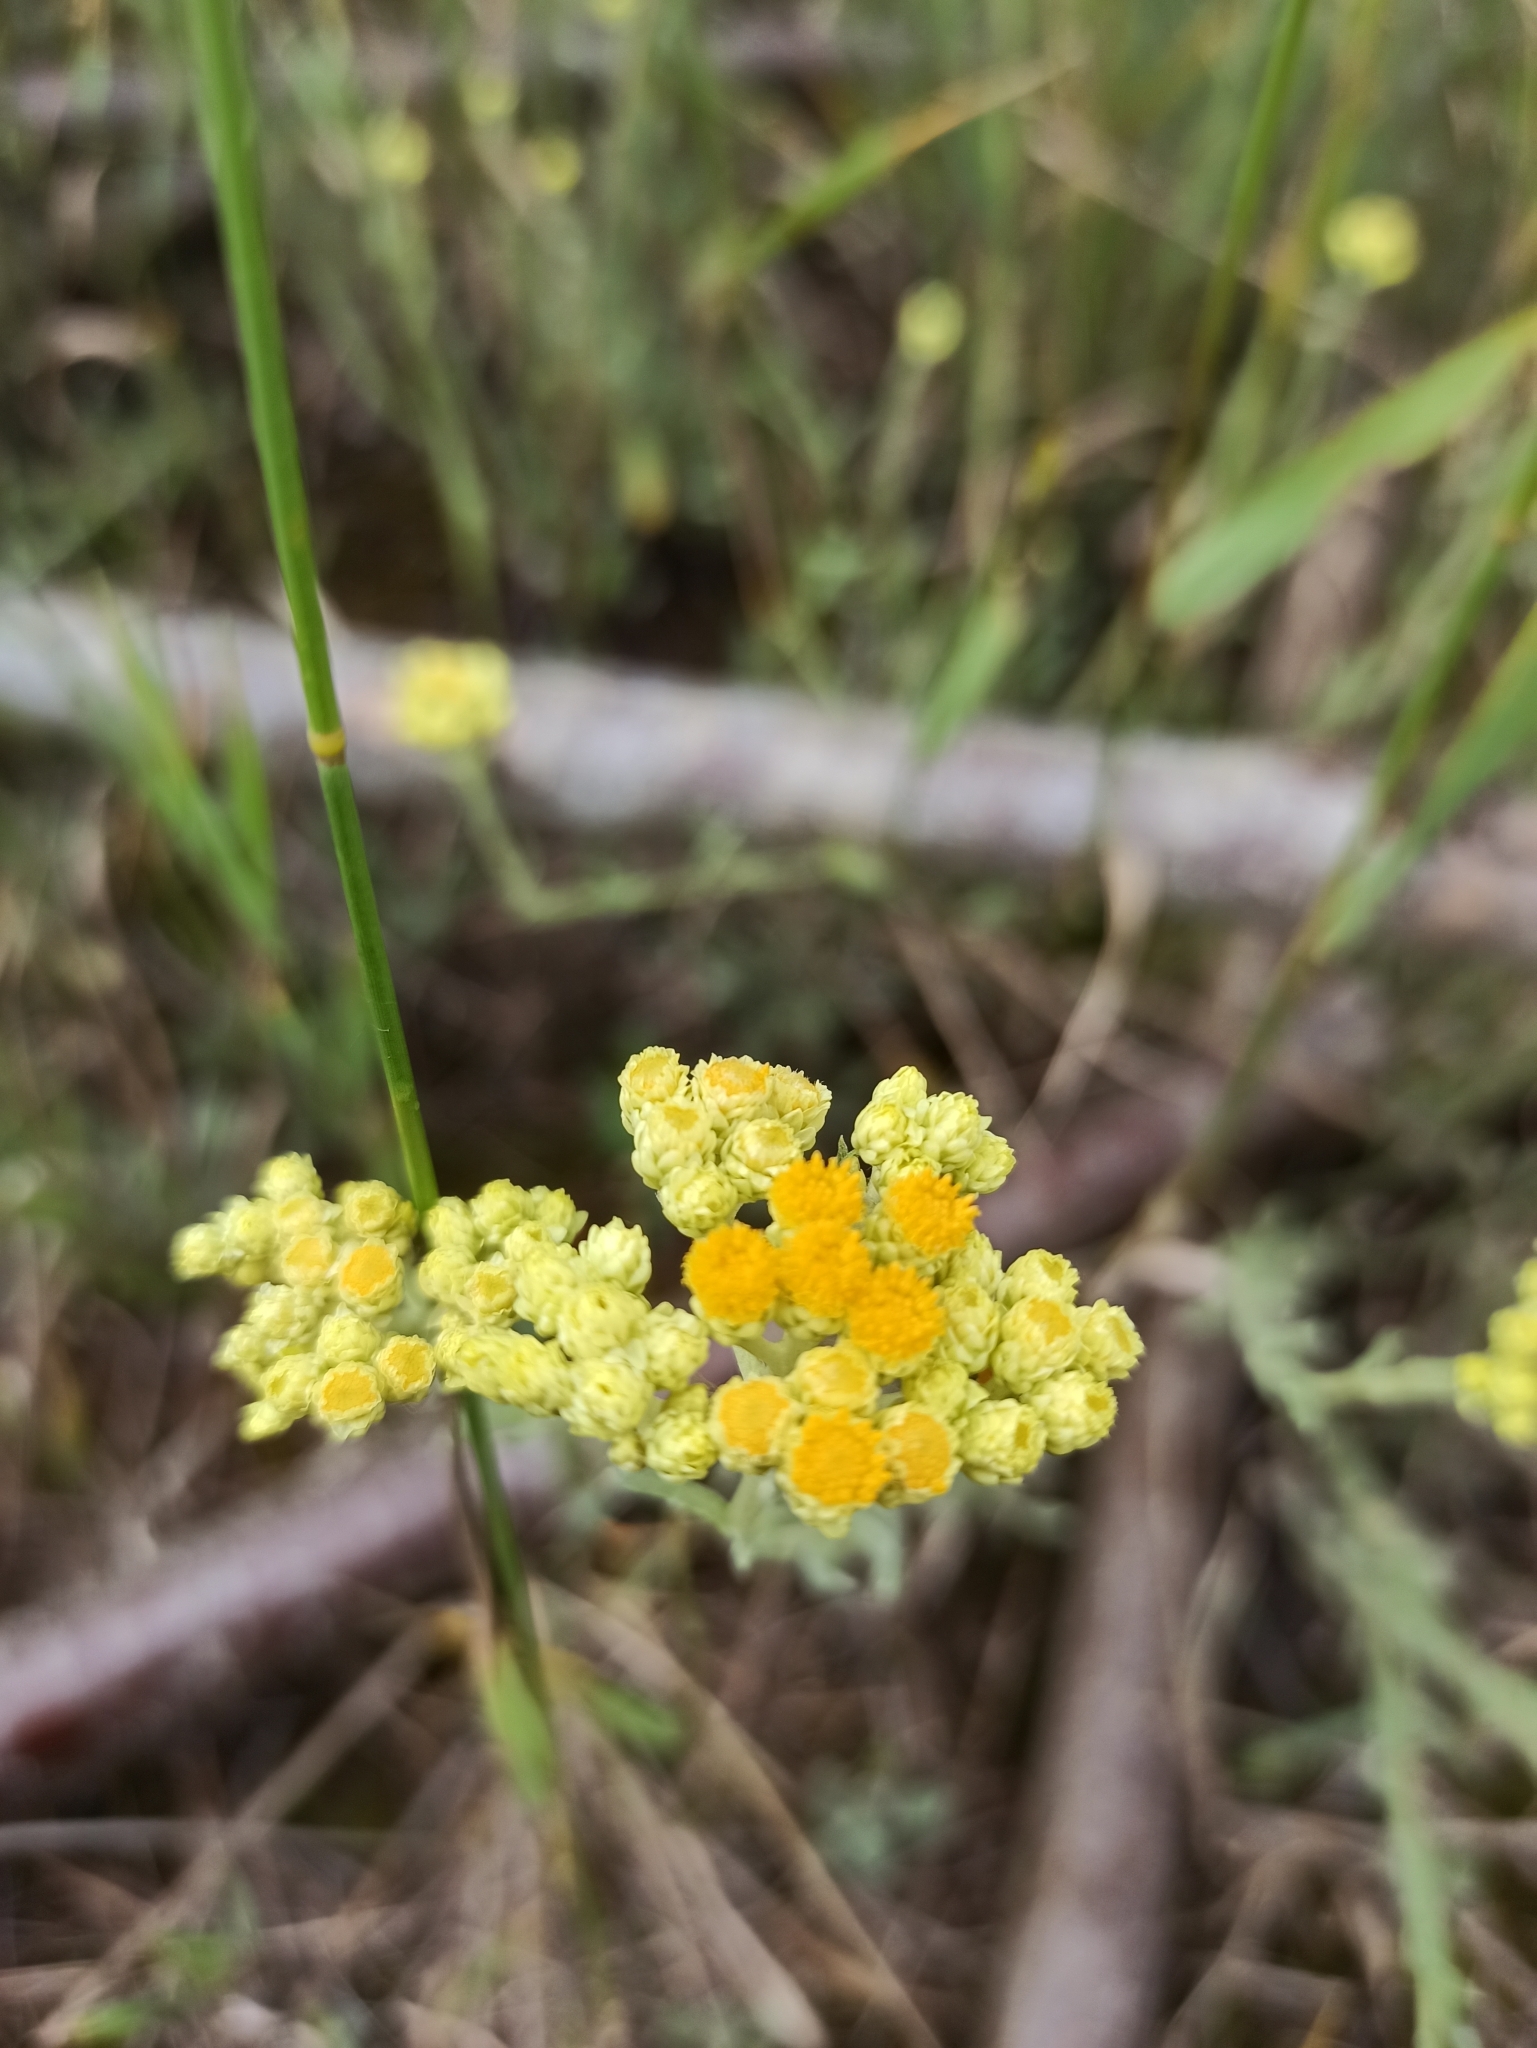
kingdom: Plantae
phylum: Tracheophyta
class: Magnoliopsida
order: Asterales
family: Asteraceae
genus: Helichrysum
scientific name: Helichrysum arenarium
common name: Strawflower
